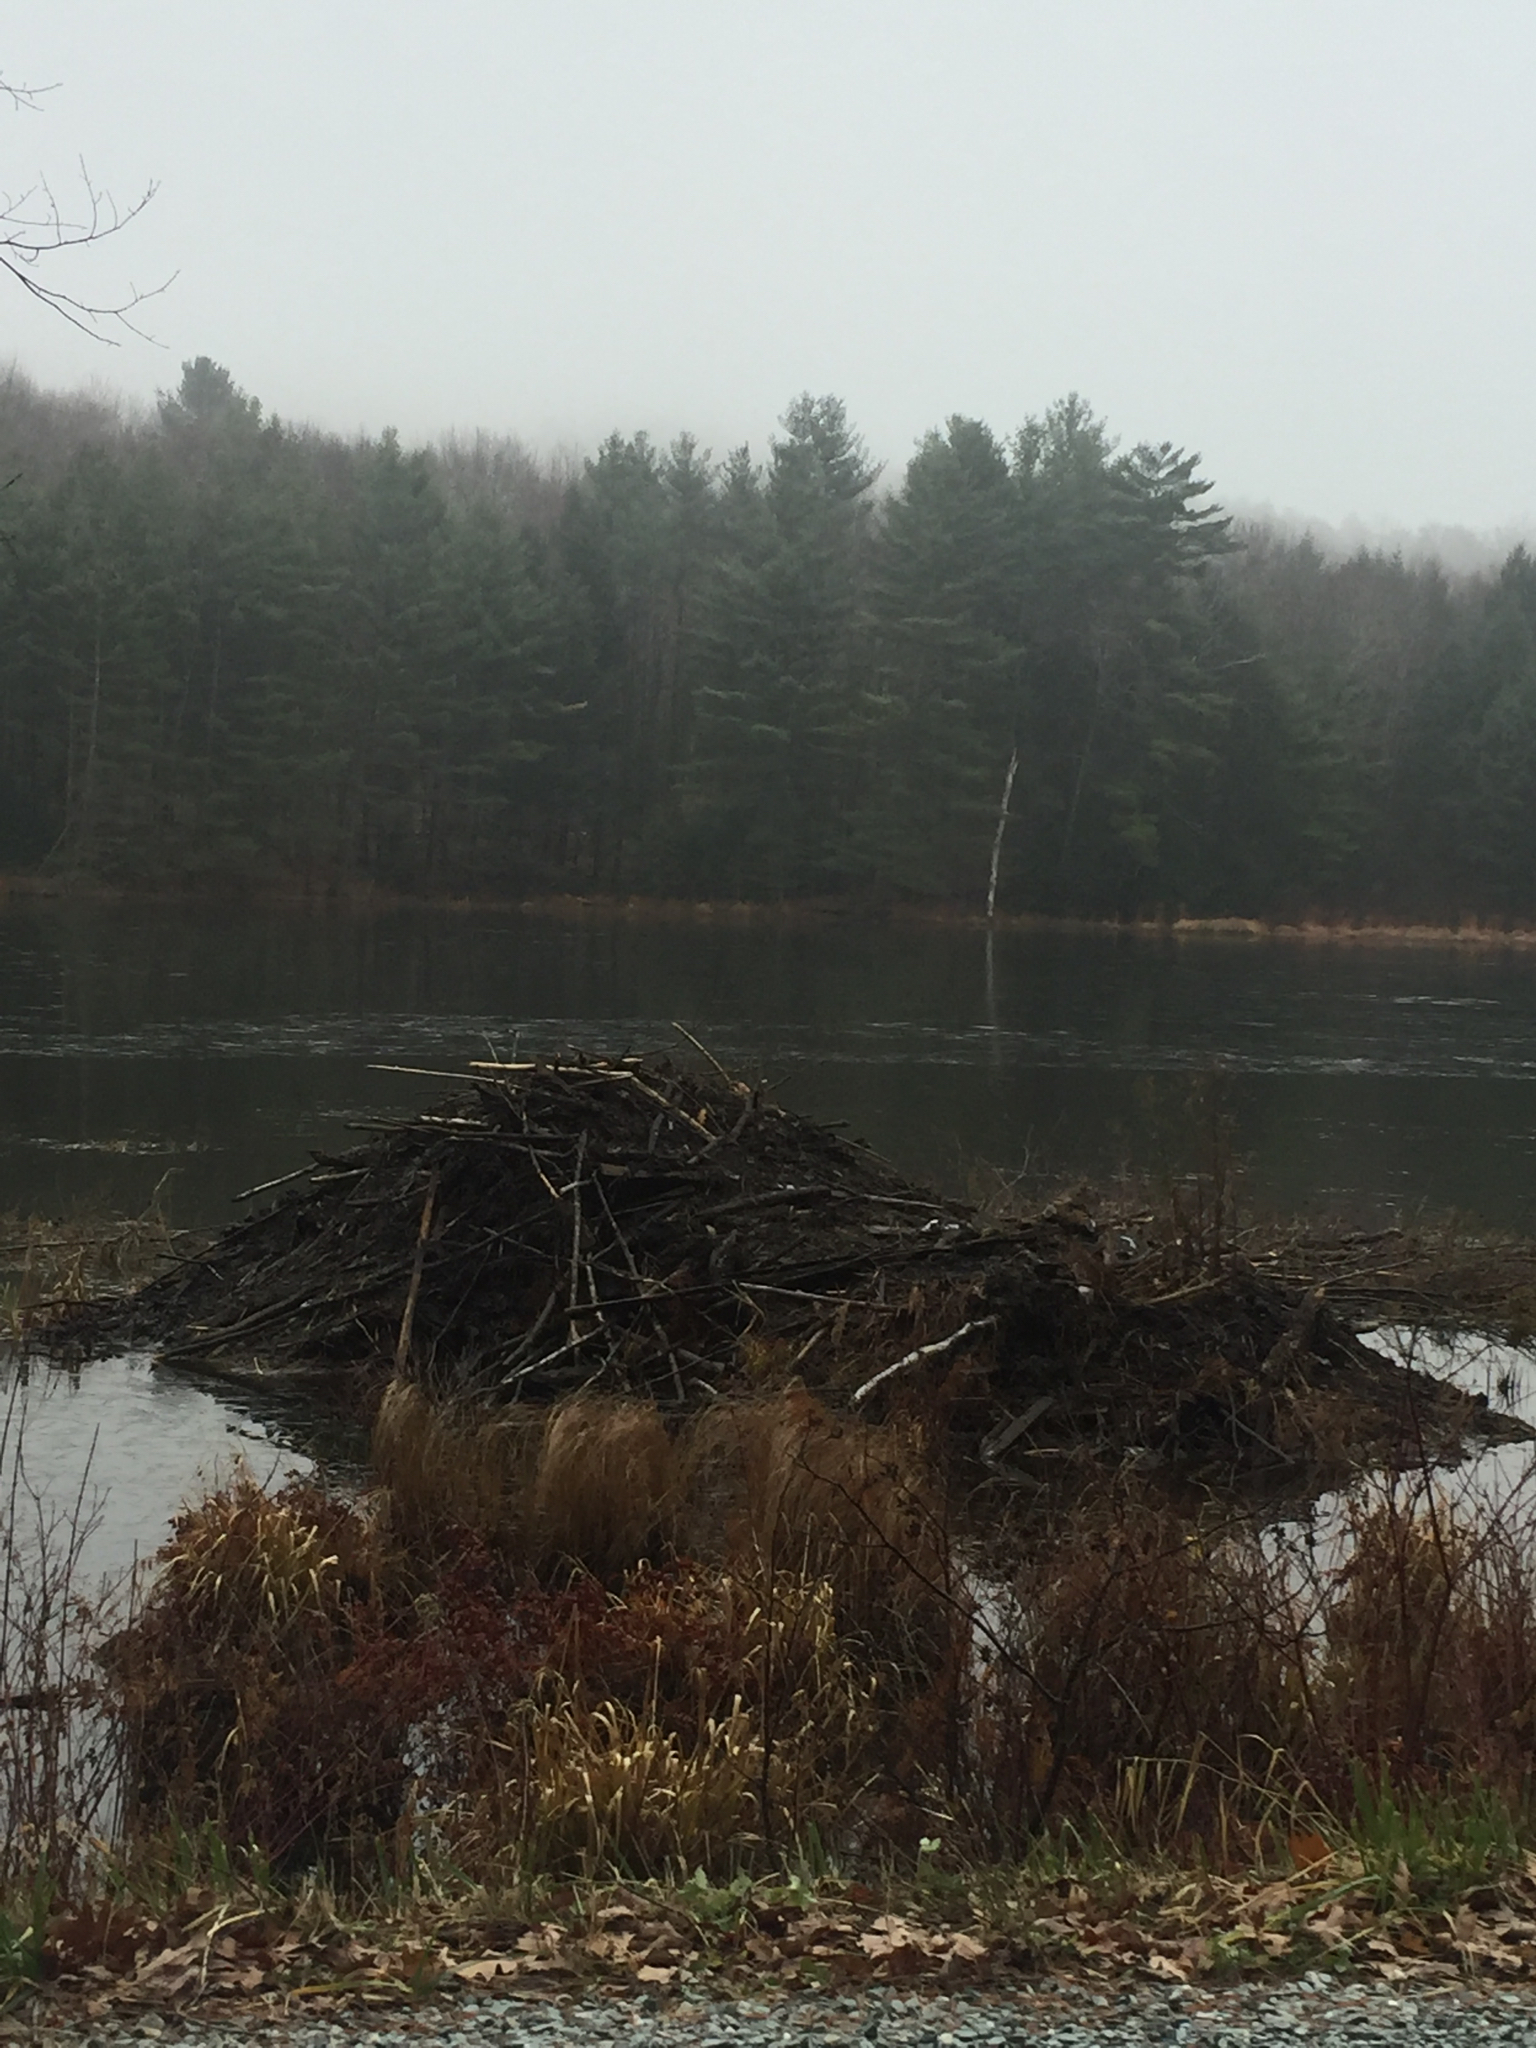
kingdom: Animalia
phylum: Chordata
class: Mammalia
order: Rodentia
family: Castoridae
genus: Castor
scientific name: Castor canadensis
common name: American beaver
